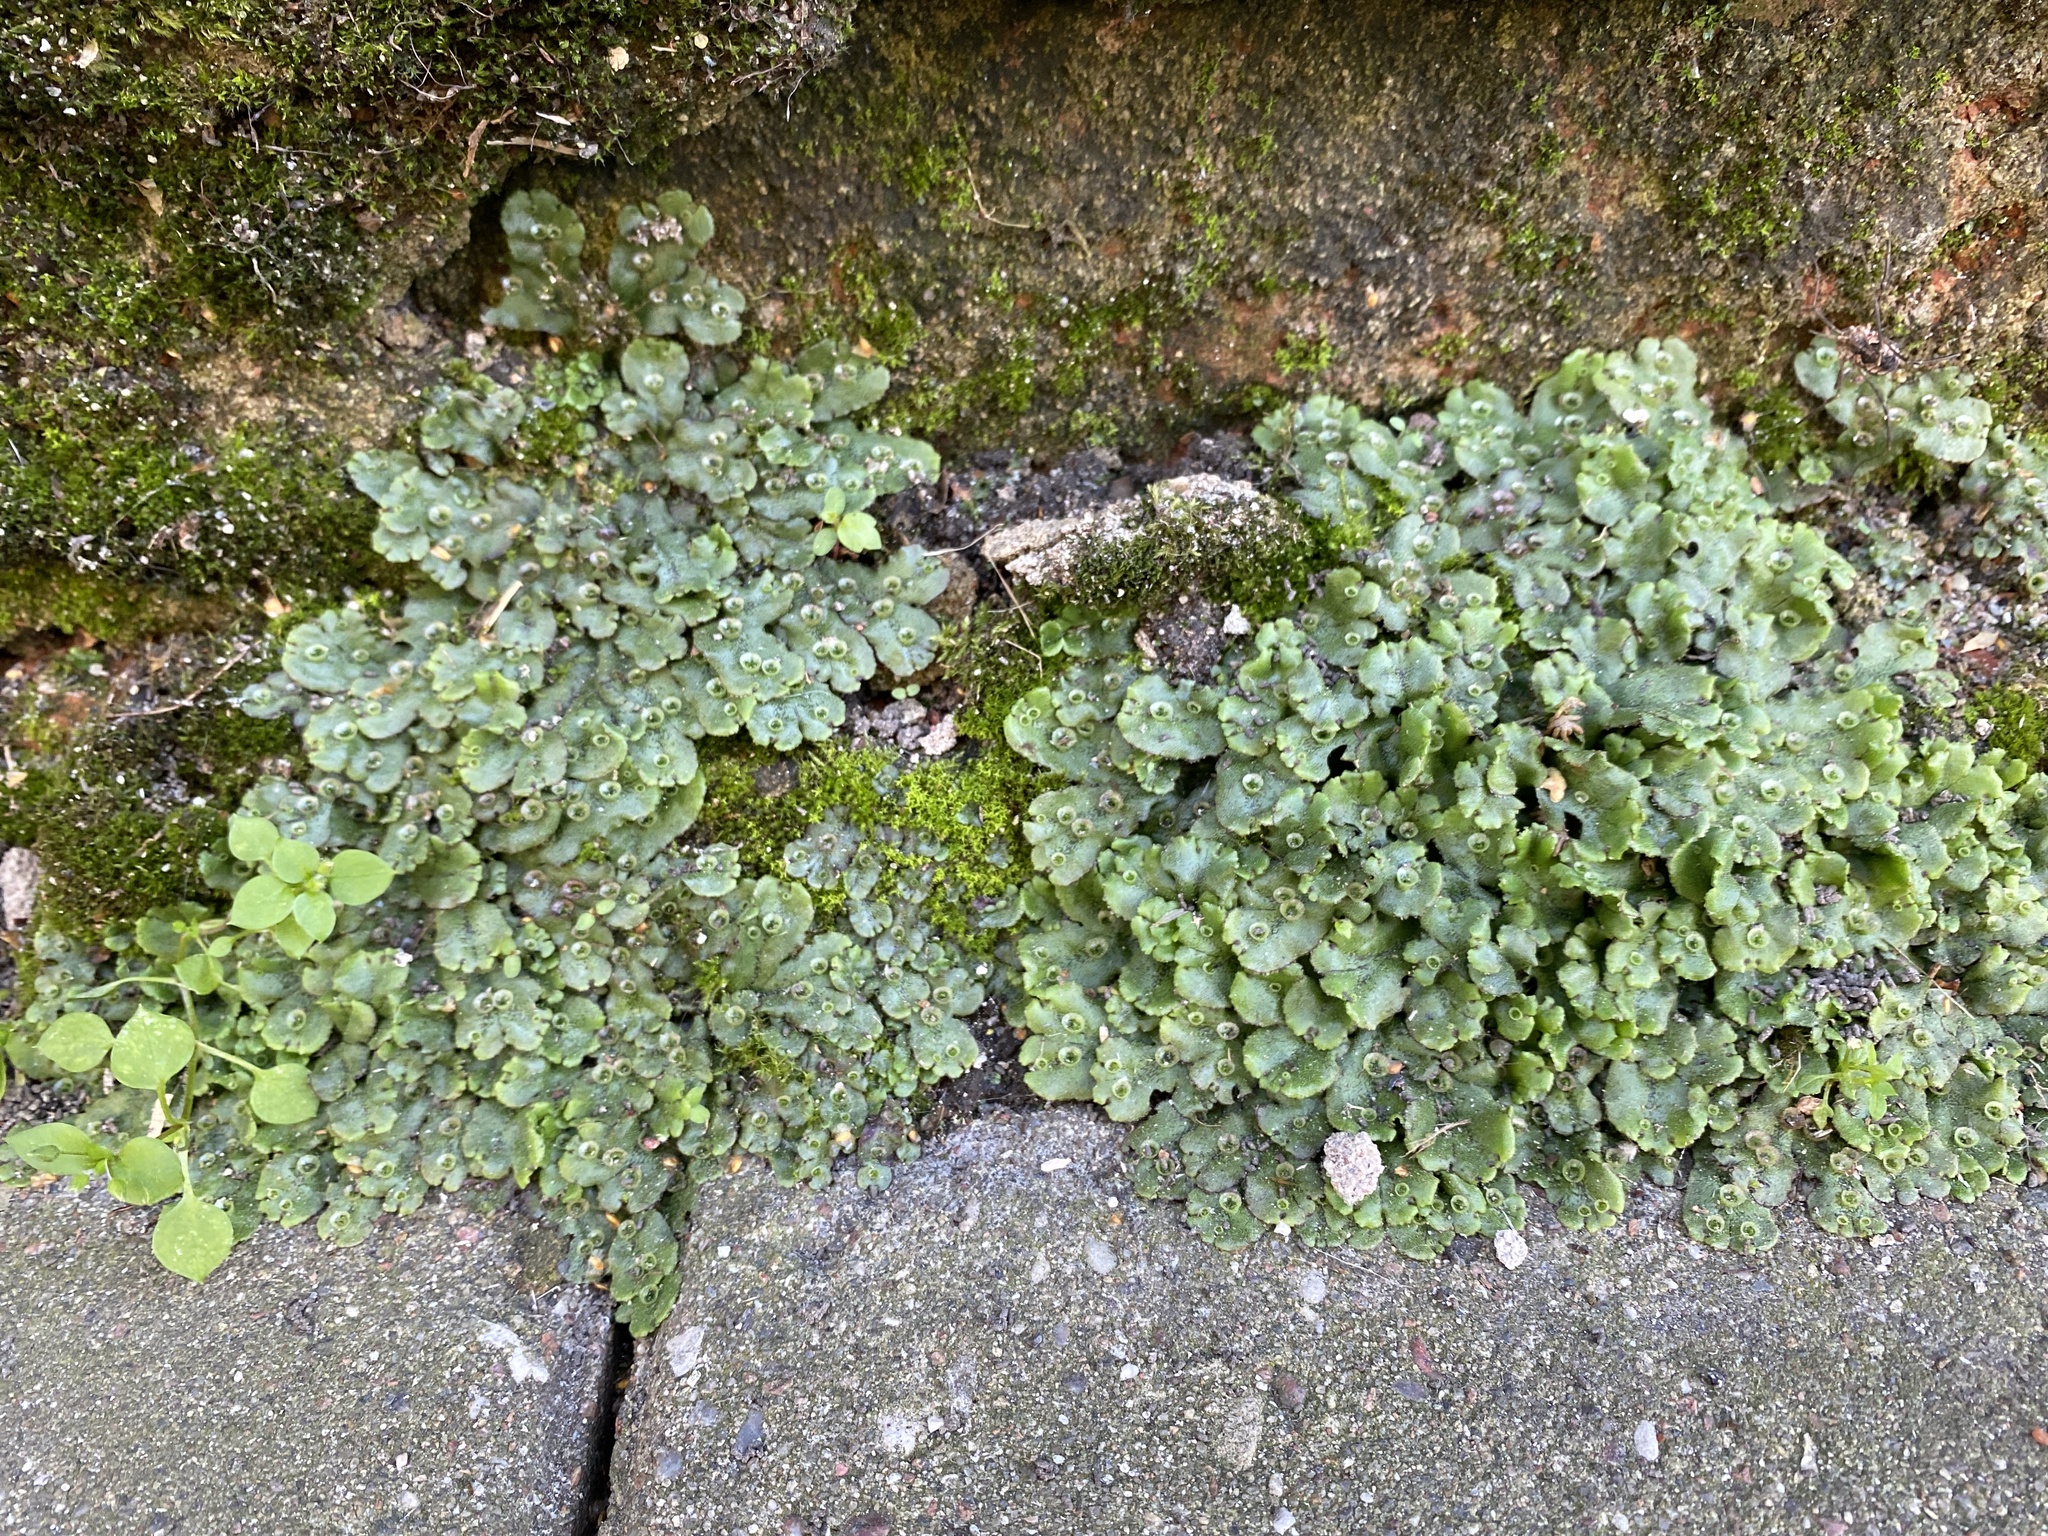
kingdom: Plantae
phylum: Marchantiophyta
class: Marchantiopsida
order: Marchantiales
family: Marchantiaceae
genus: Marchantia
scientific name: Marchantia polymorpha
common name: Common liverwort
